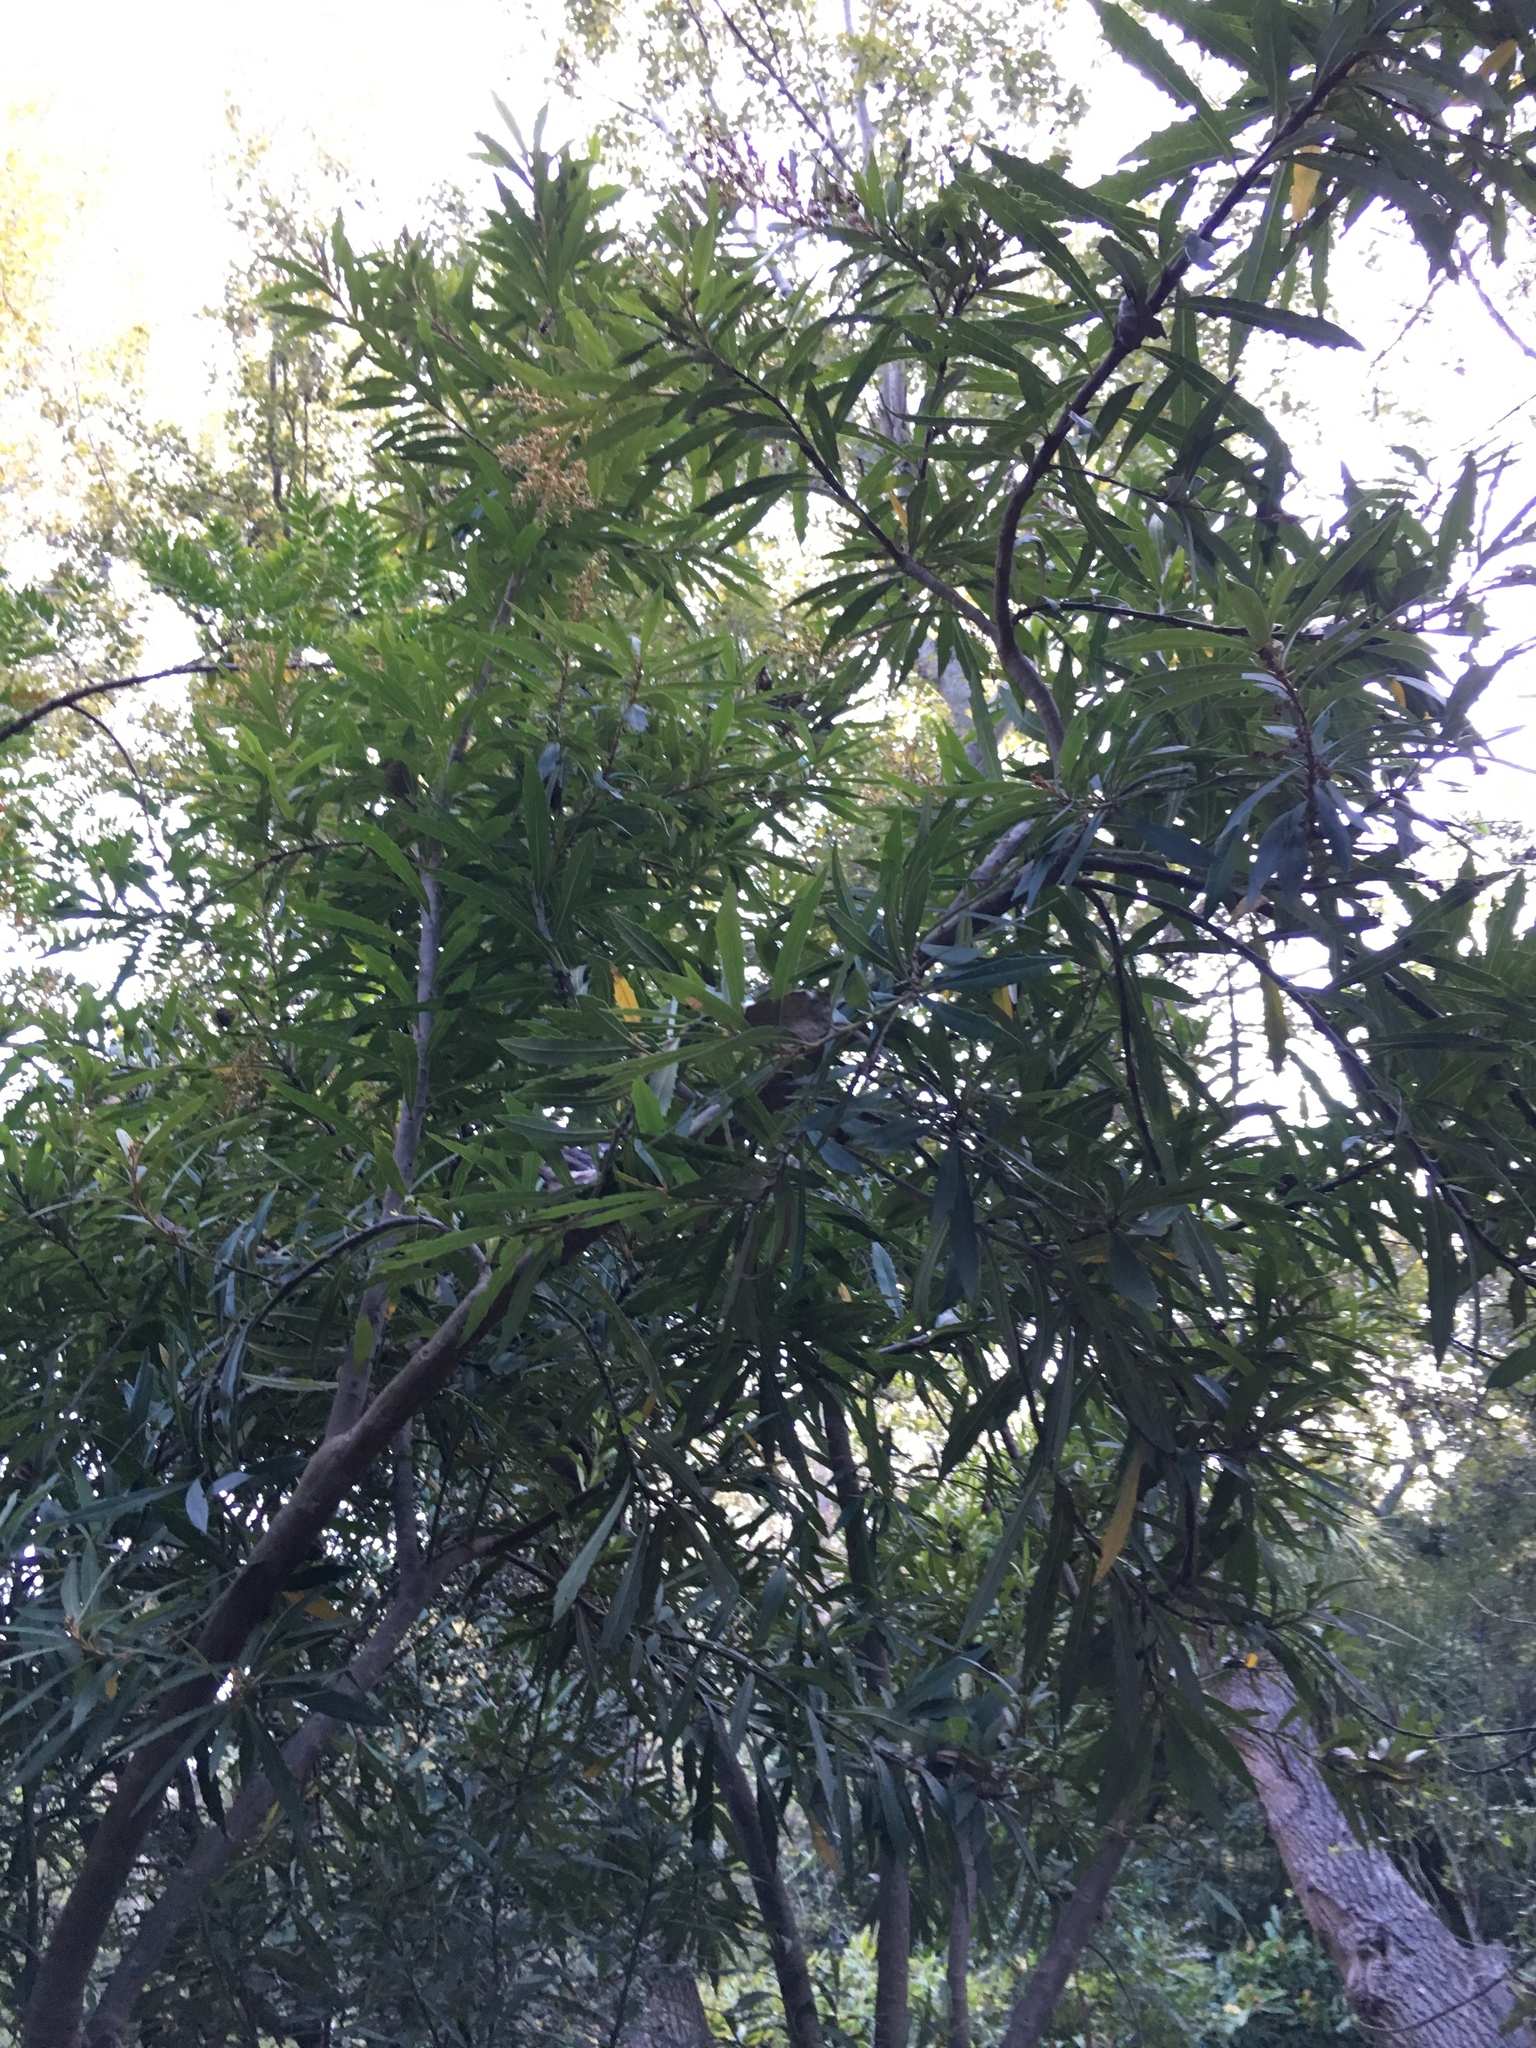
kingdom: Plantae
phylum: Tracheophyta
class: Magnoliopsida
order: Asterales
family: Asteraceae
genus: Brachylaena
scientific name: Brachylaena neriifolia
